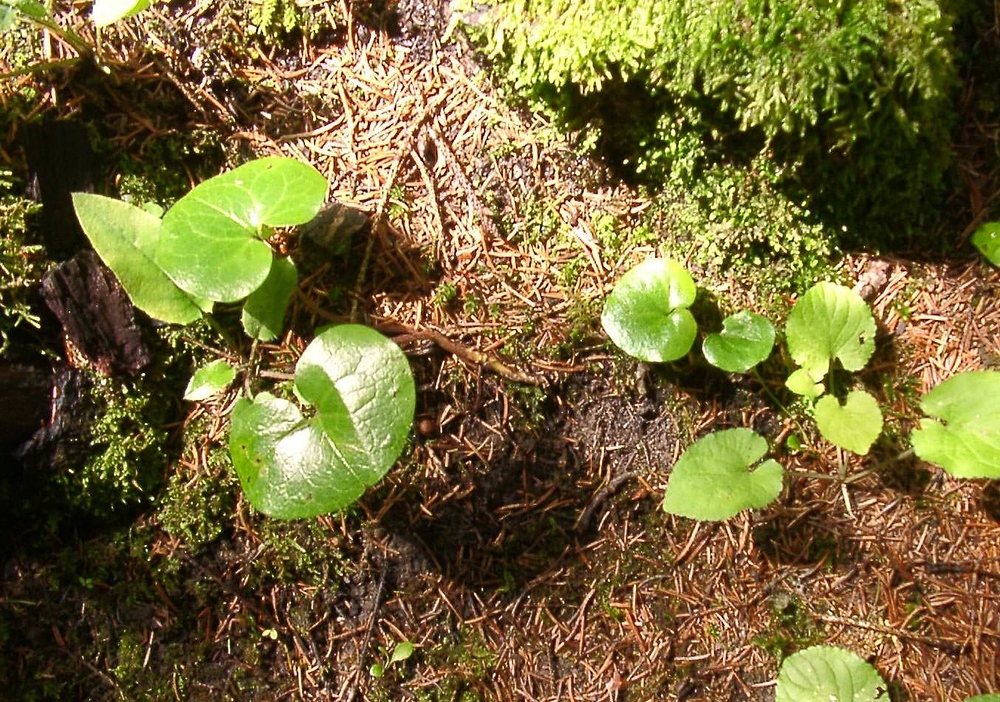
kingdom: Plantae
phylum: Tracheophyta
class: Magnoliopsida
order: Piperales
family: Aristolochiaceae
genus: Asarum
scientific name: Asarum europaeum
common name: Asarabacca
